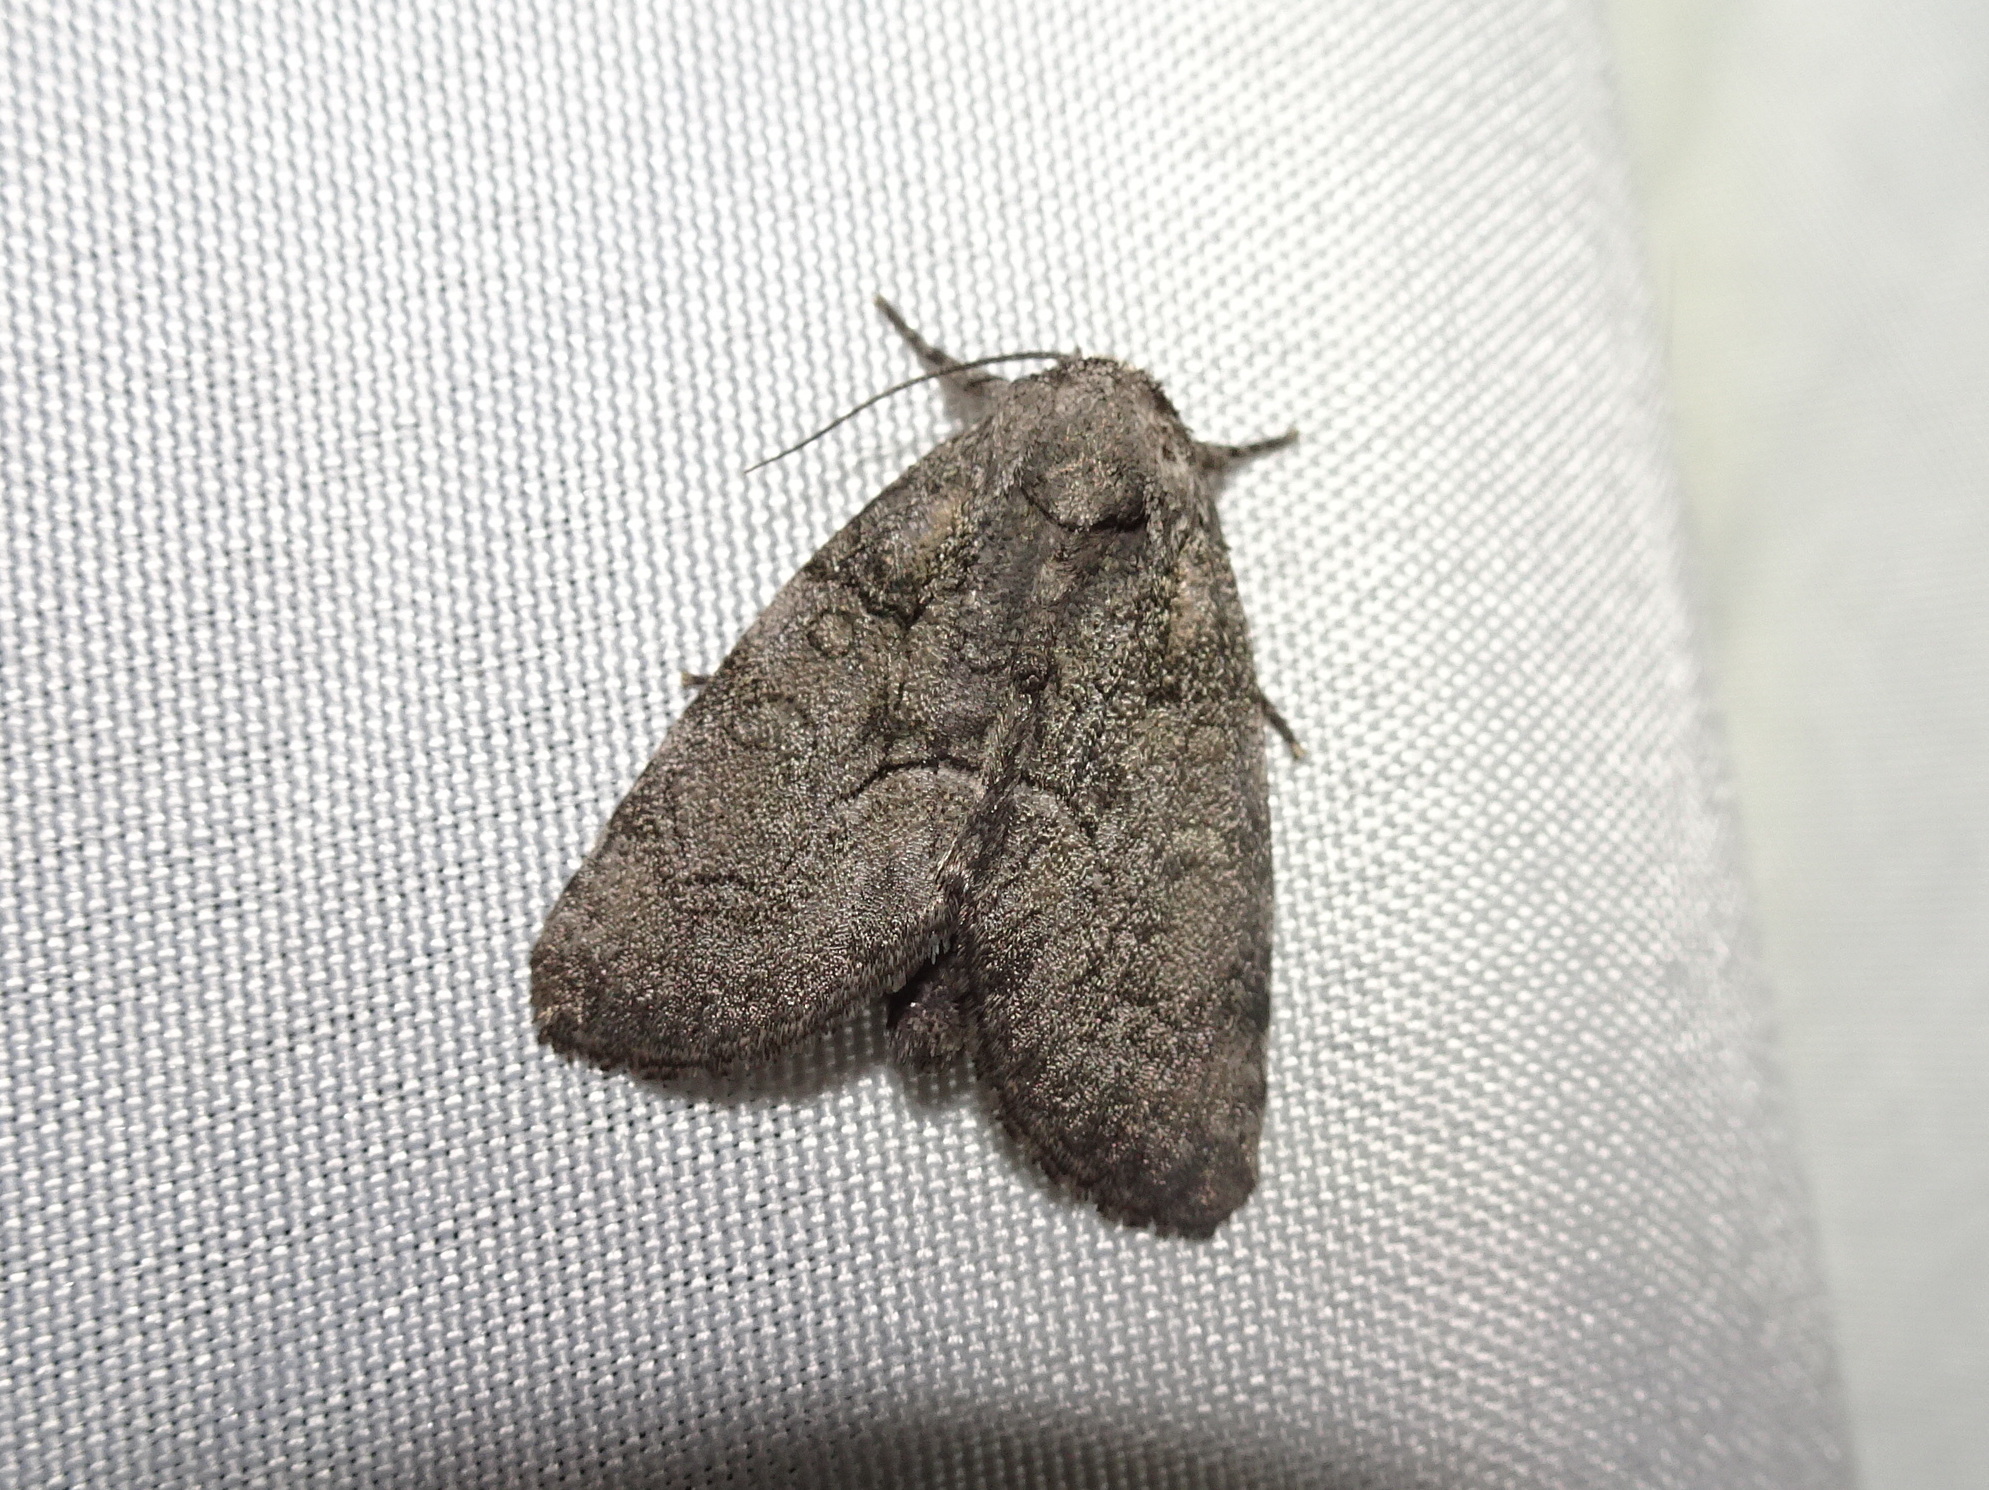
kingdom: Animalia
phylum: Arthropoda
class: Insecta
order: Lepidoptera
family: Noctuidae
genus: Raphia
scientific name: Raphia frater
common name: Brother
